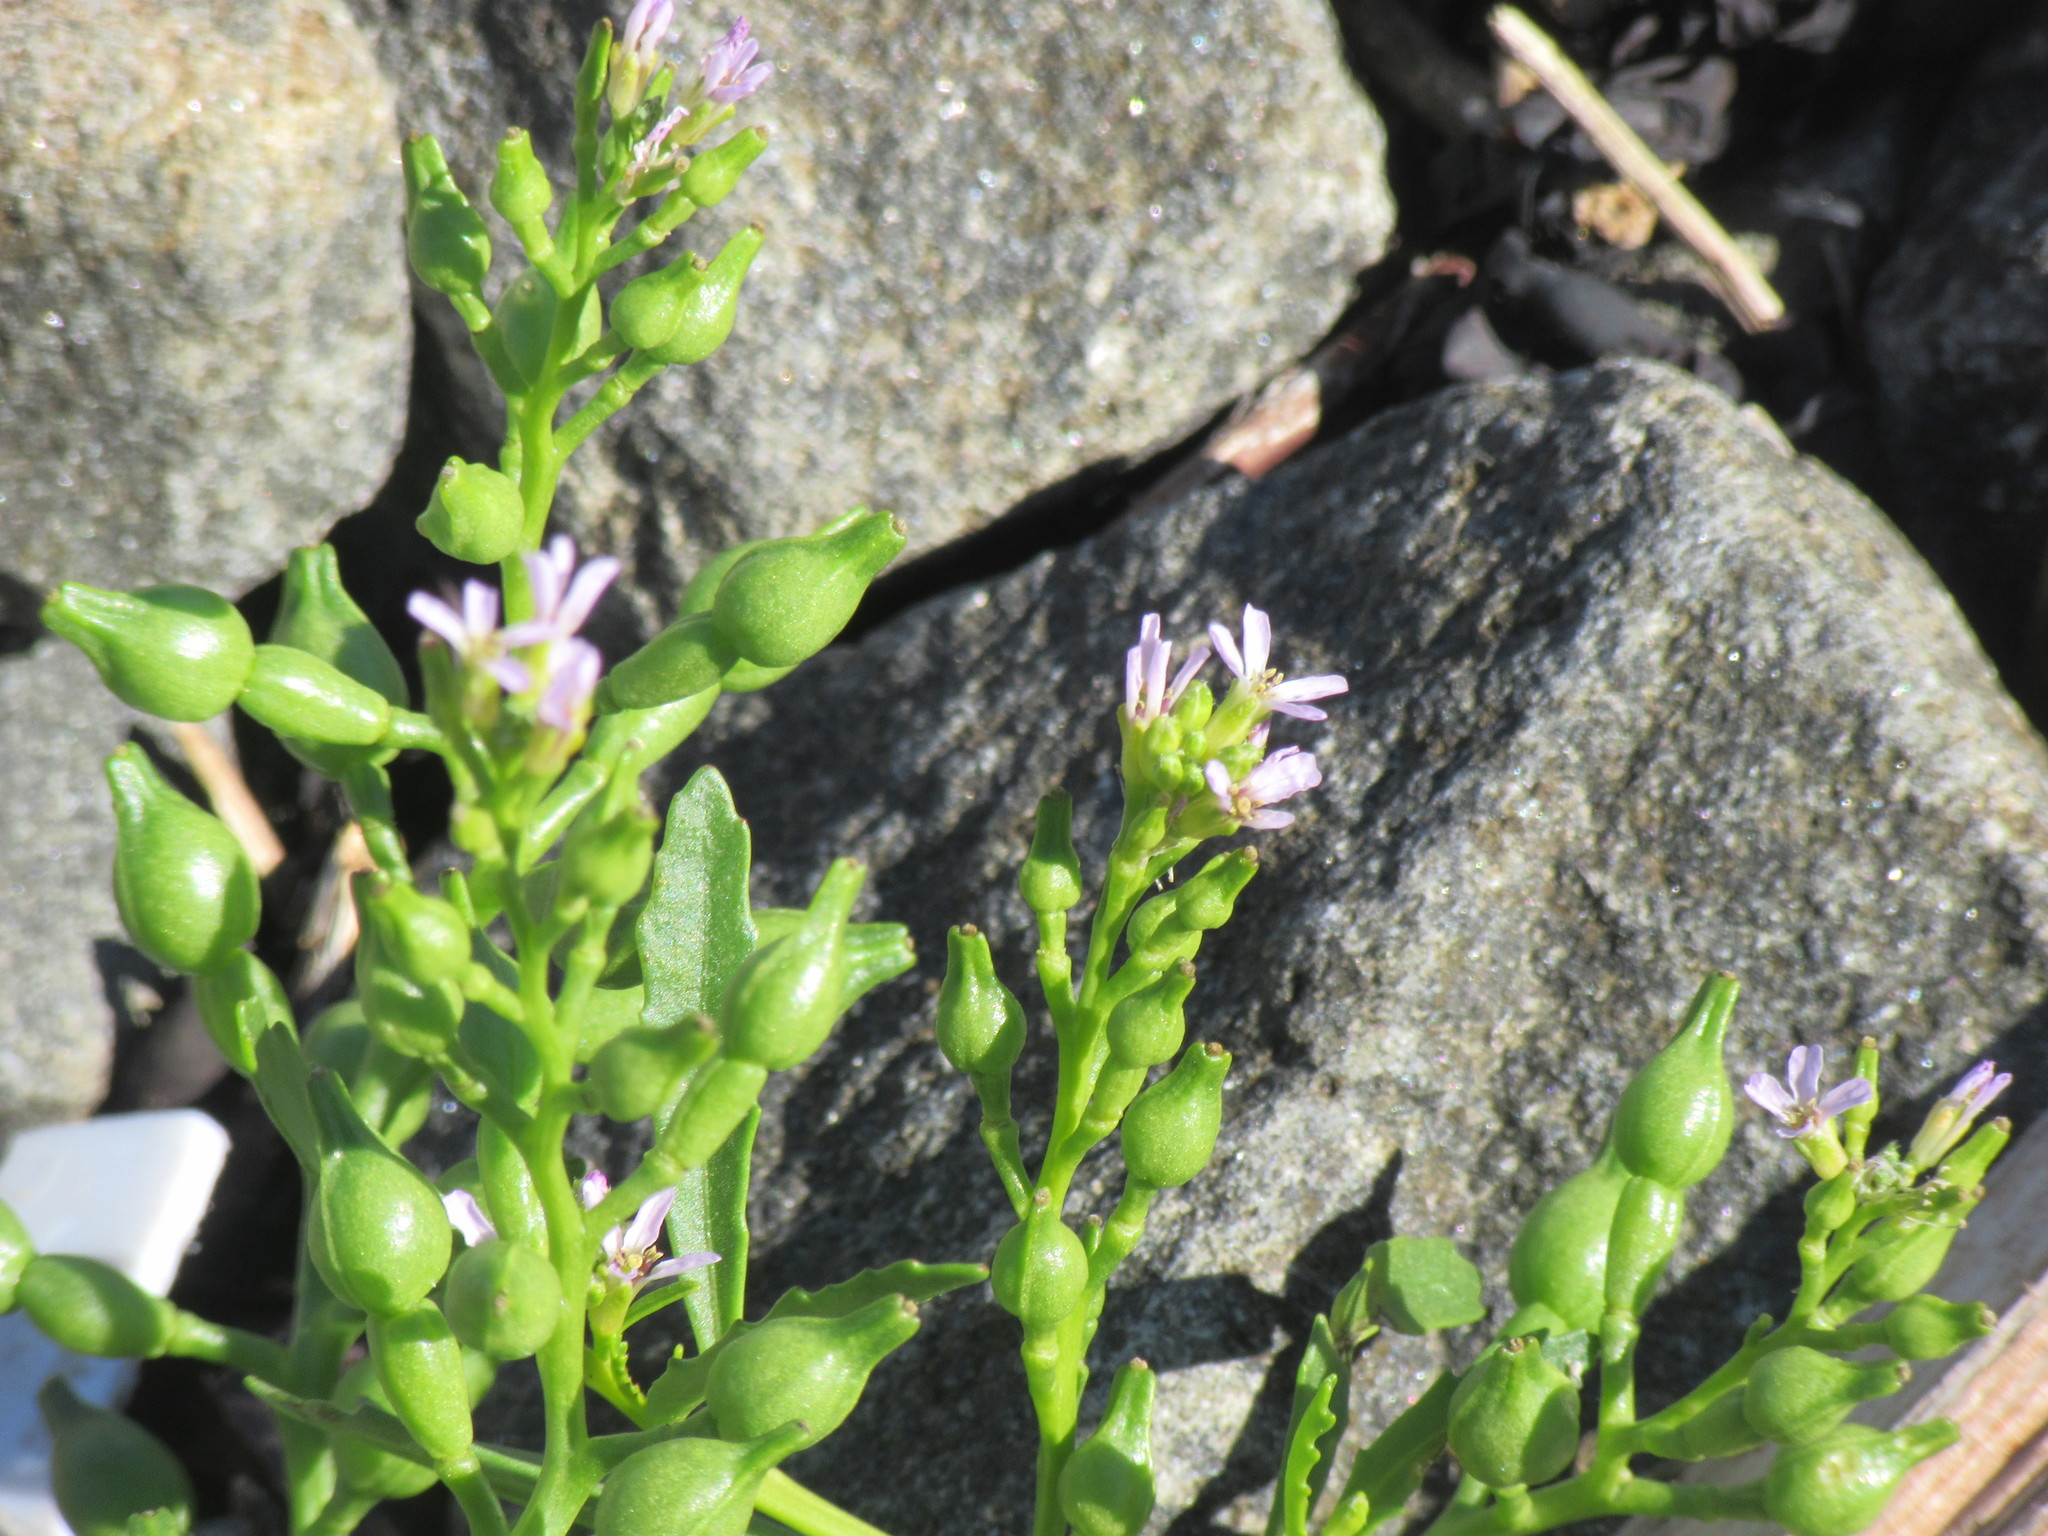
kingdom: Plantae
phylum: Tracheophyta
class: Magnoliopsida
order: Brassicales
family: Brassicaceae
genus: Cakile
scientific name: Cakile edentula
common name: American sea rocket
